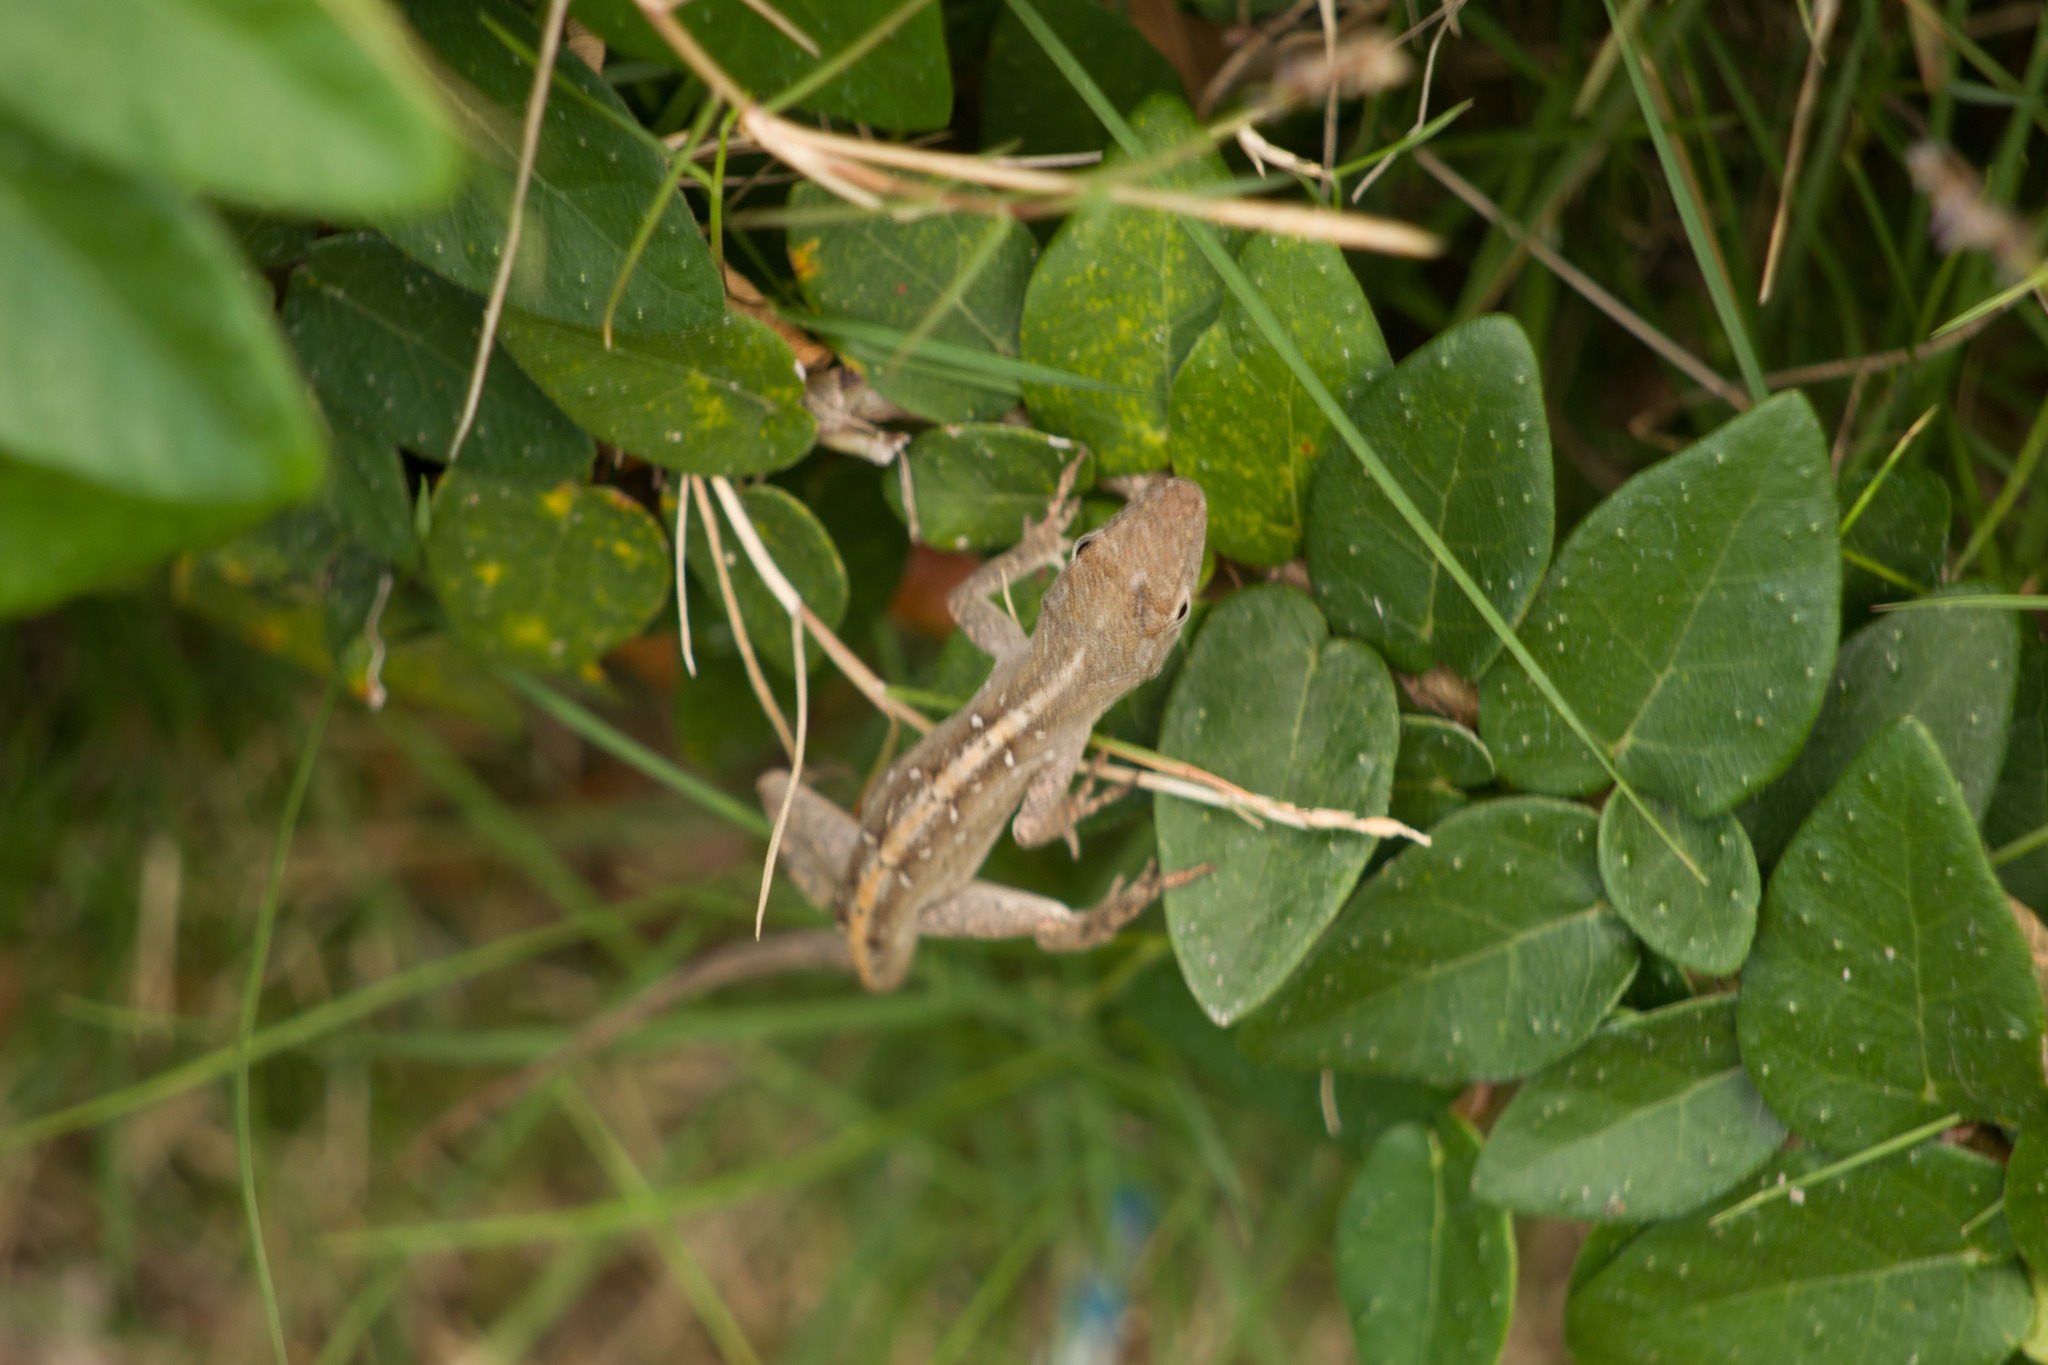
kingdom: Animalia
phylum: Chordata
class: Squamata
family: Dactyloidae
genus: Anolis
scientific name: Anolis sagrei
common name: Brown anole
